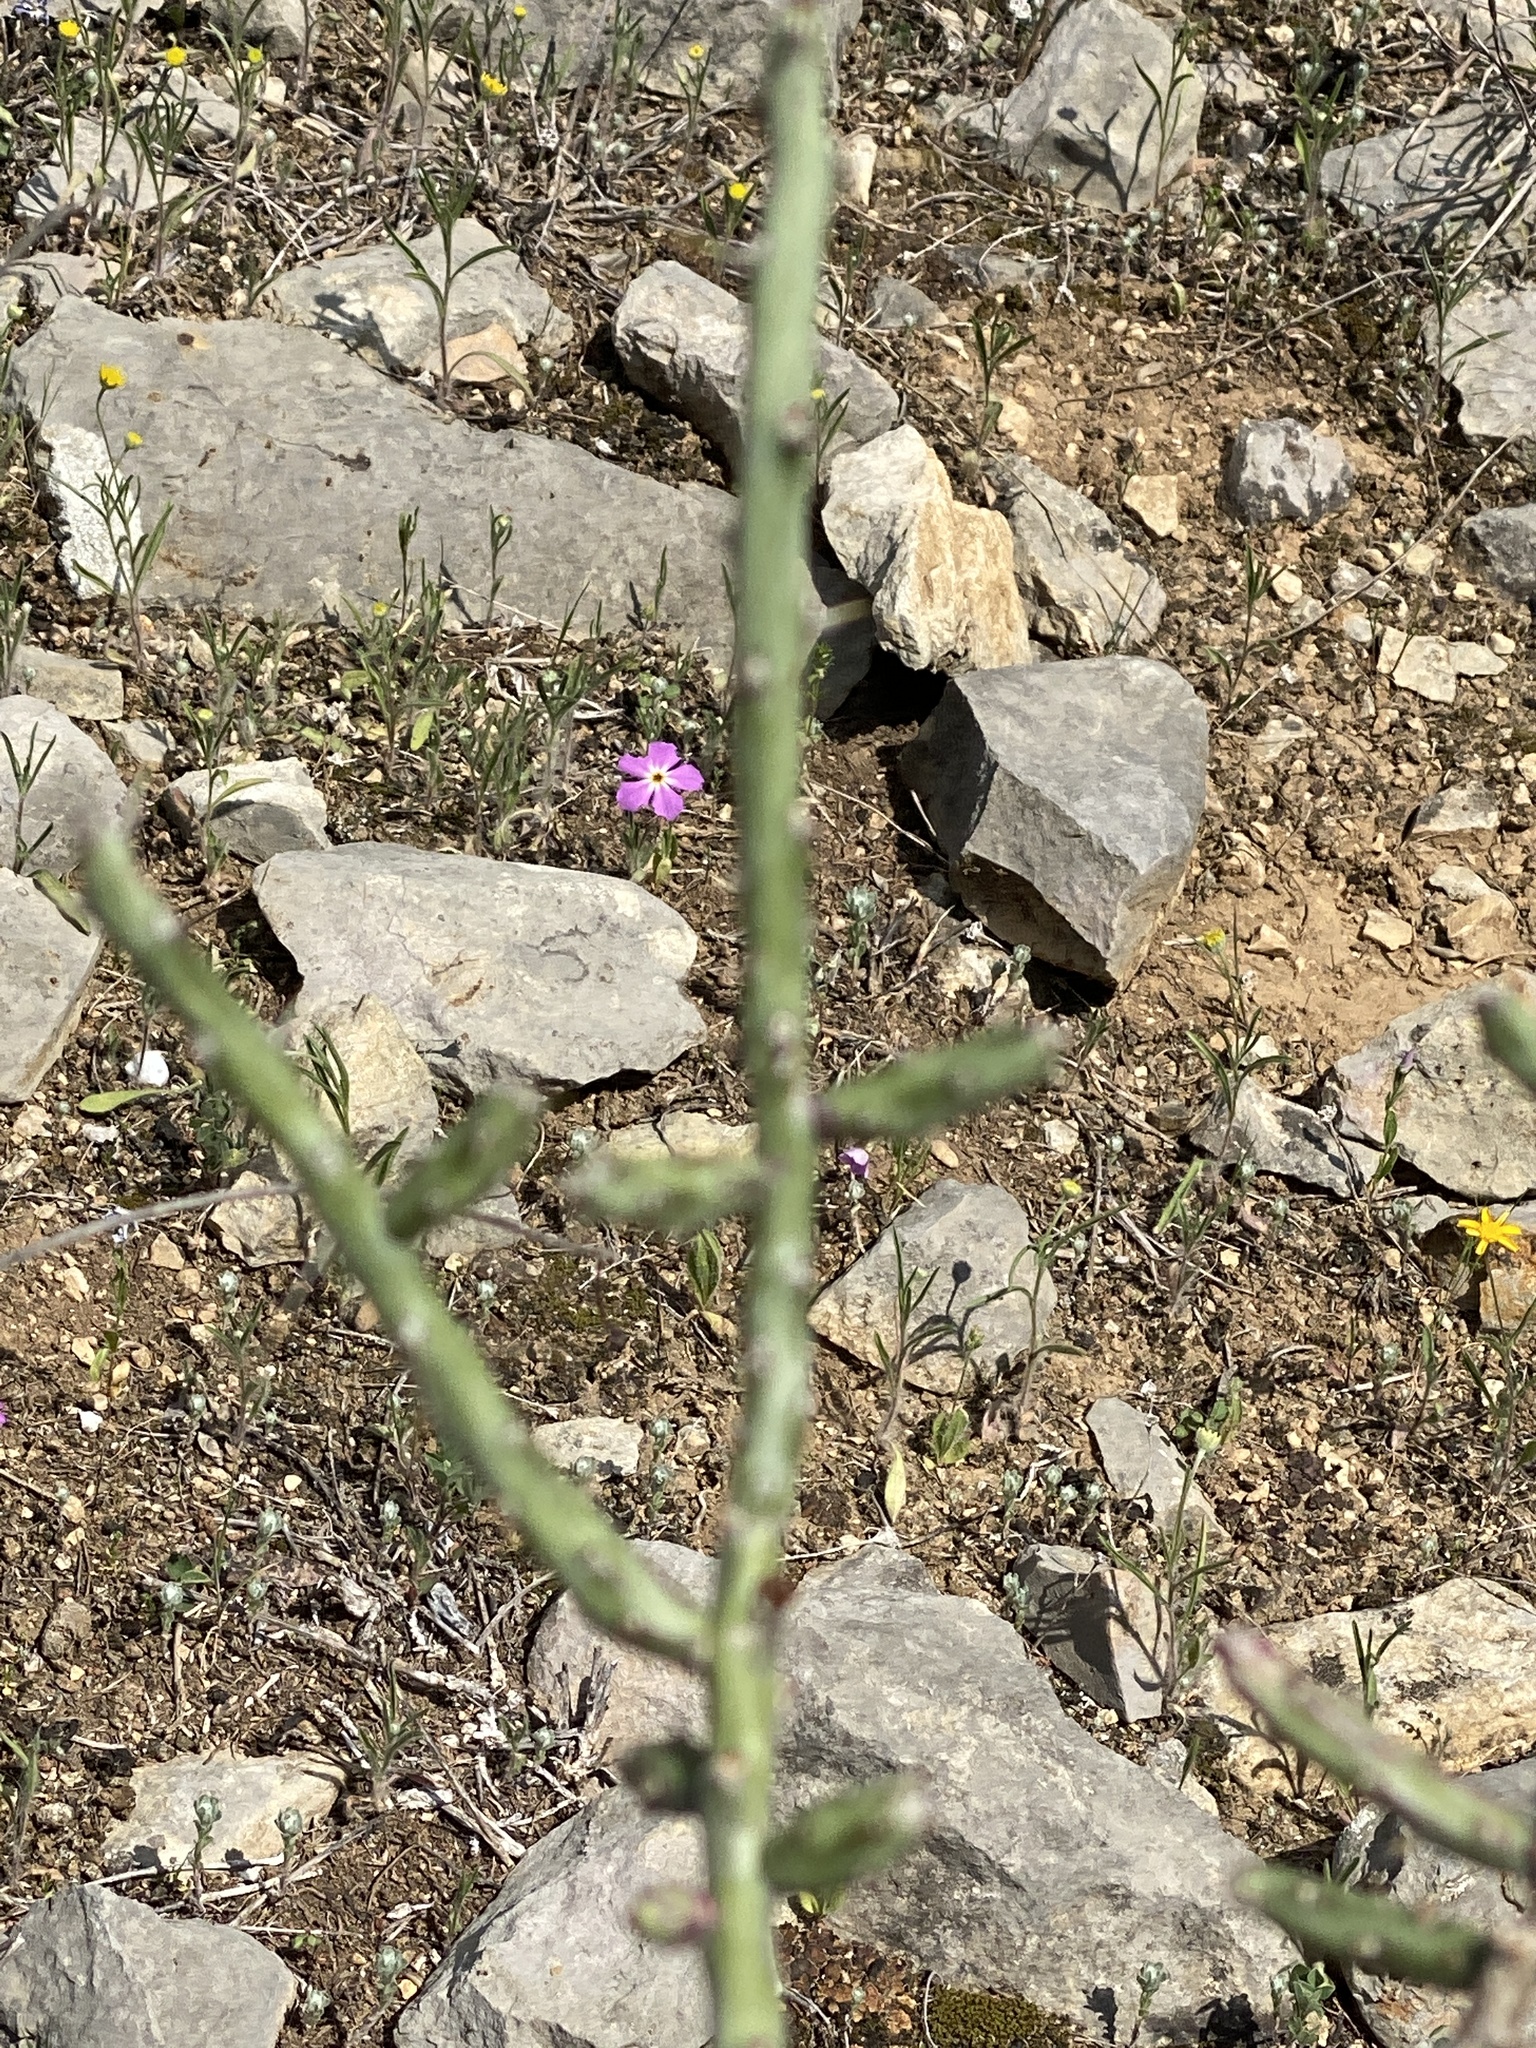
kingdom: Plantae
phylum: Tracheophyta
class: Magnoliopsida
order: Caryophyllales
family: Cactaceae
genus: Cylindropuntia
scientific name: Cylindropuntia leptocaulis
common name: Christmas cactus
